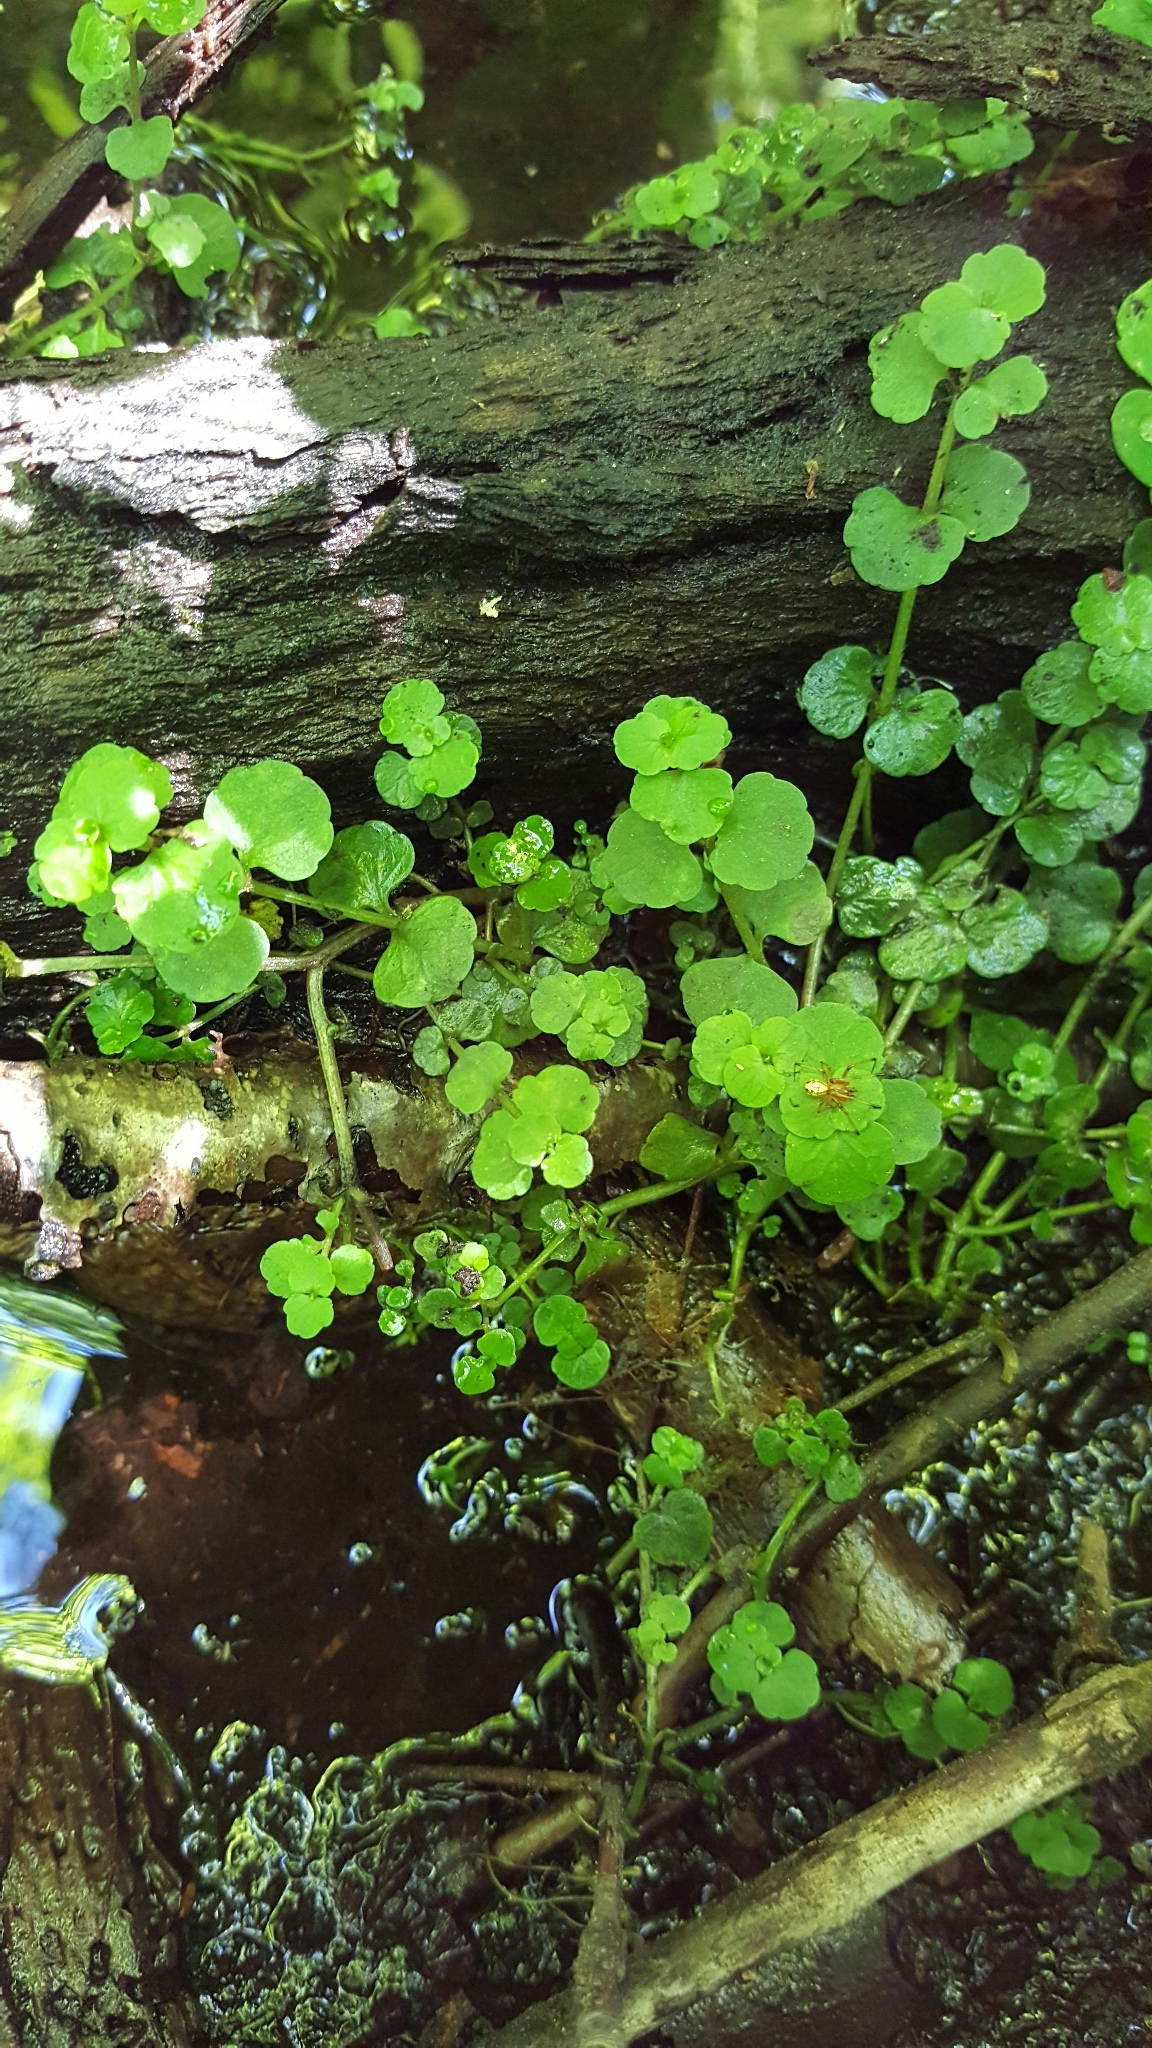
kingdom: Plantae
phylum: Tracheophyta
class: Magnoliopsida
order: Saxifragales
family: Saxifragaceae
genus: Chrysosplenium
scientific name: Chrysosplenium americanum
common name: American golden-saxifrage
